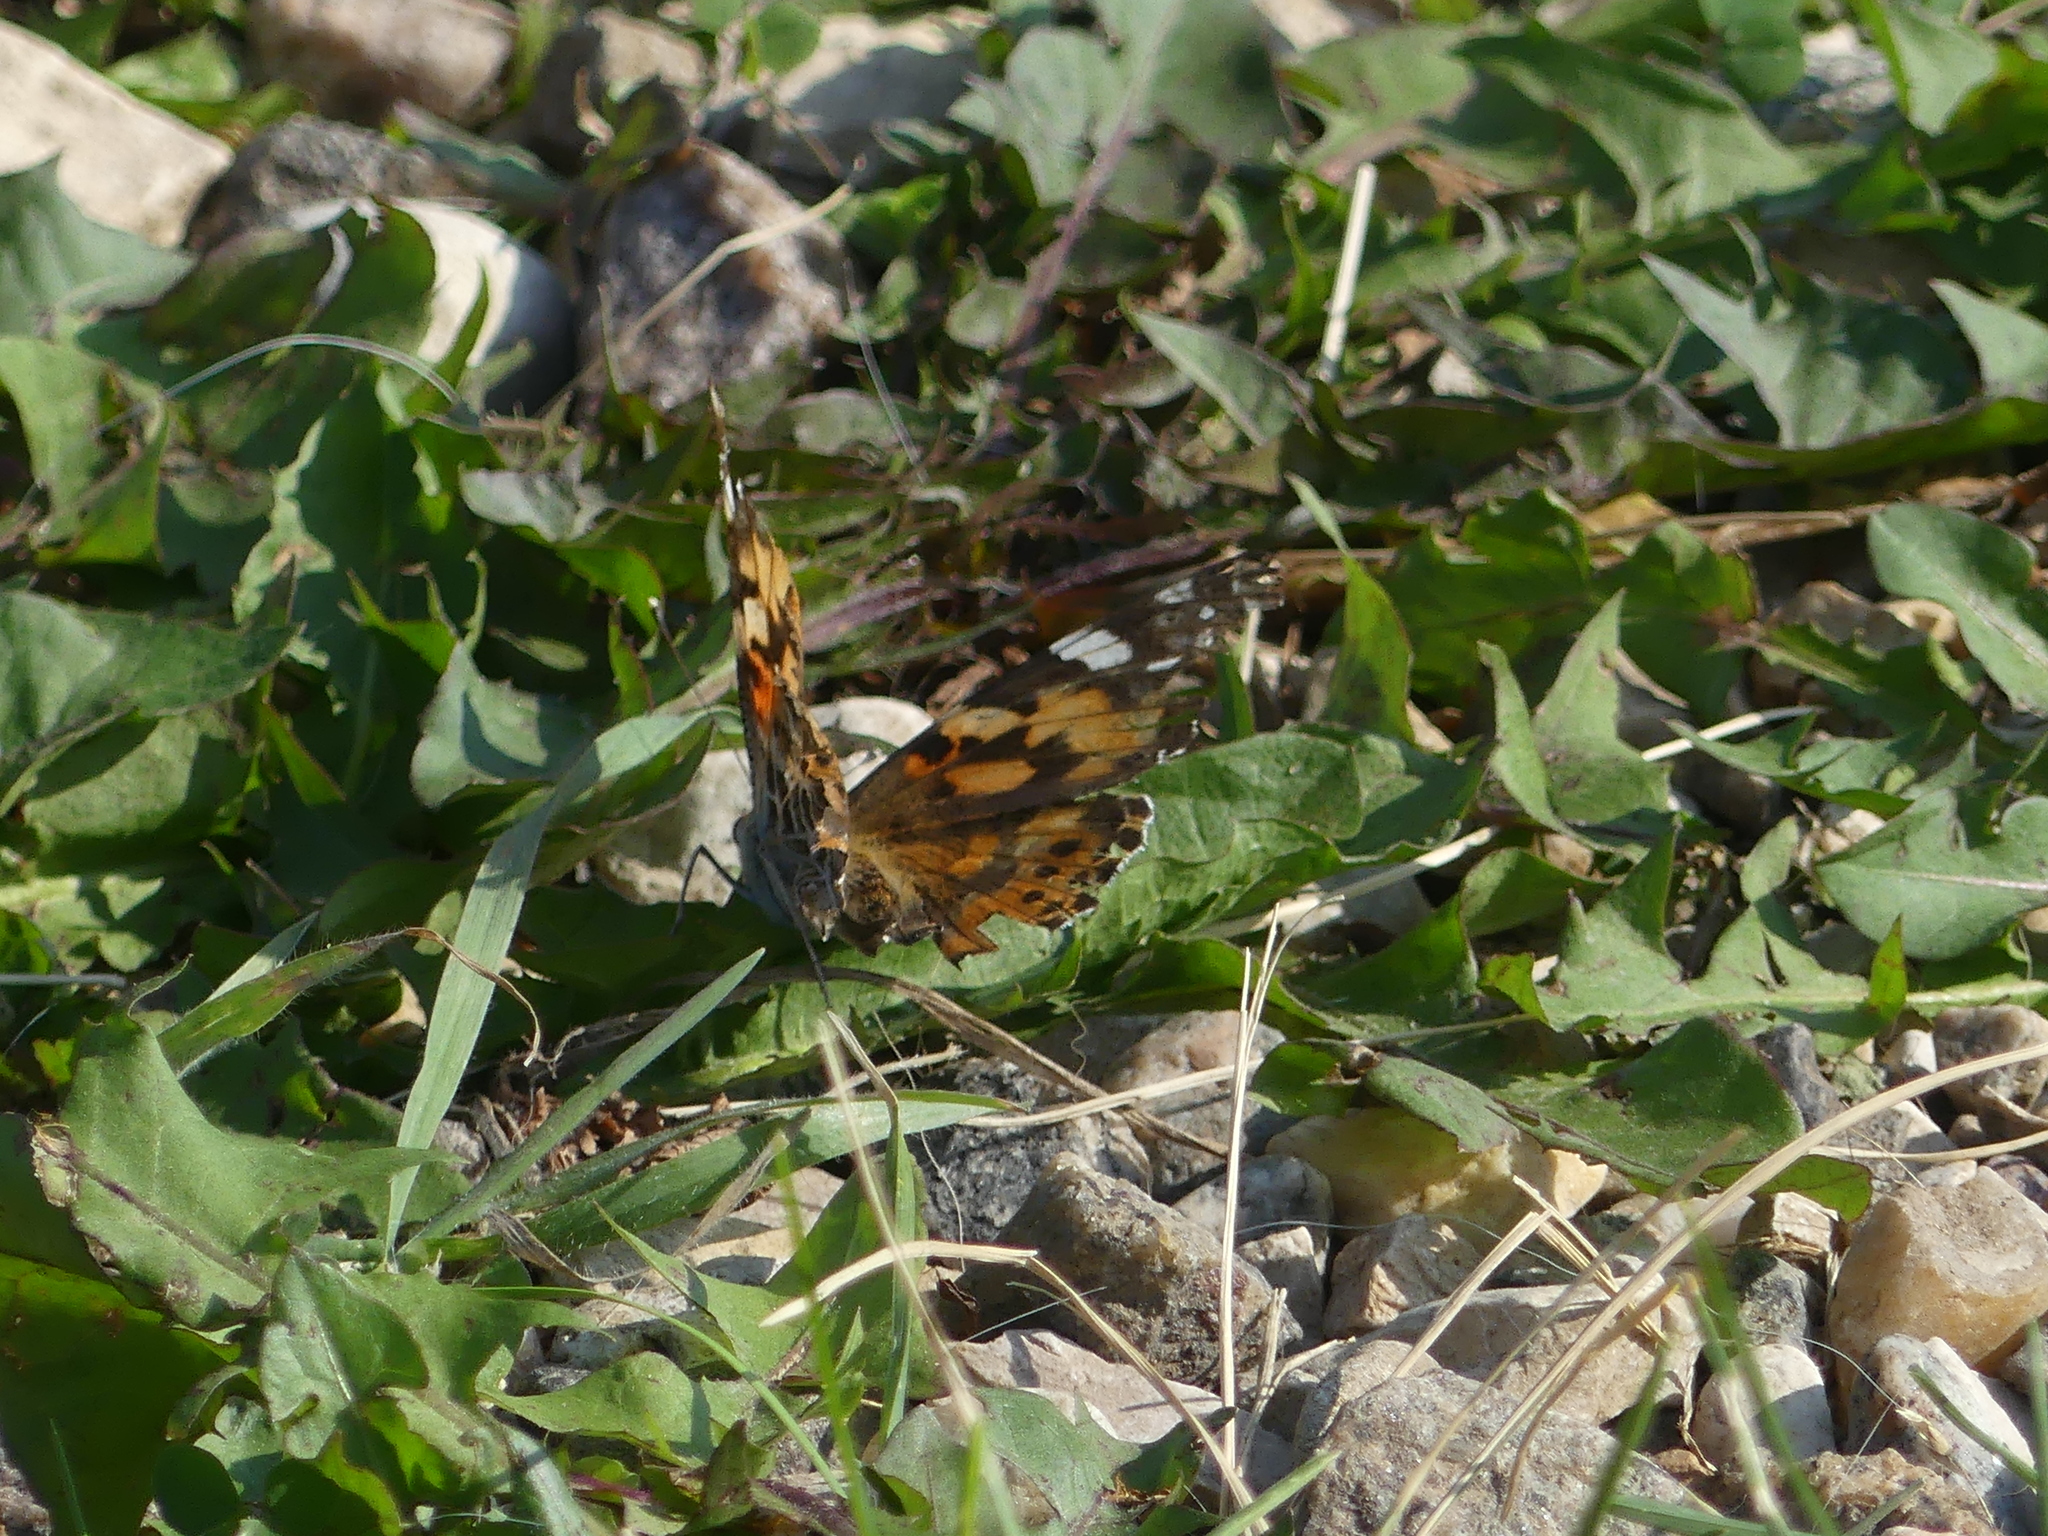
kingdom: Animalia
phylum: Arthropoda
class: Insecta
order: Lepidoptera
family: Nymphalidae
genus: Vanessa
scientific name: Vanessa cardui
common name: Painted lady
